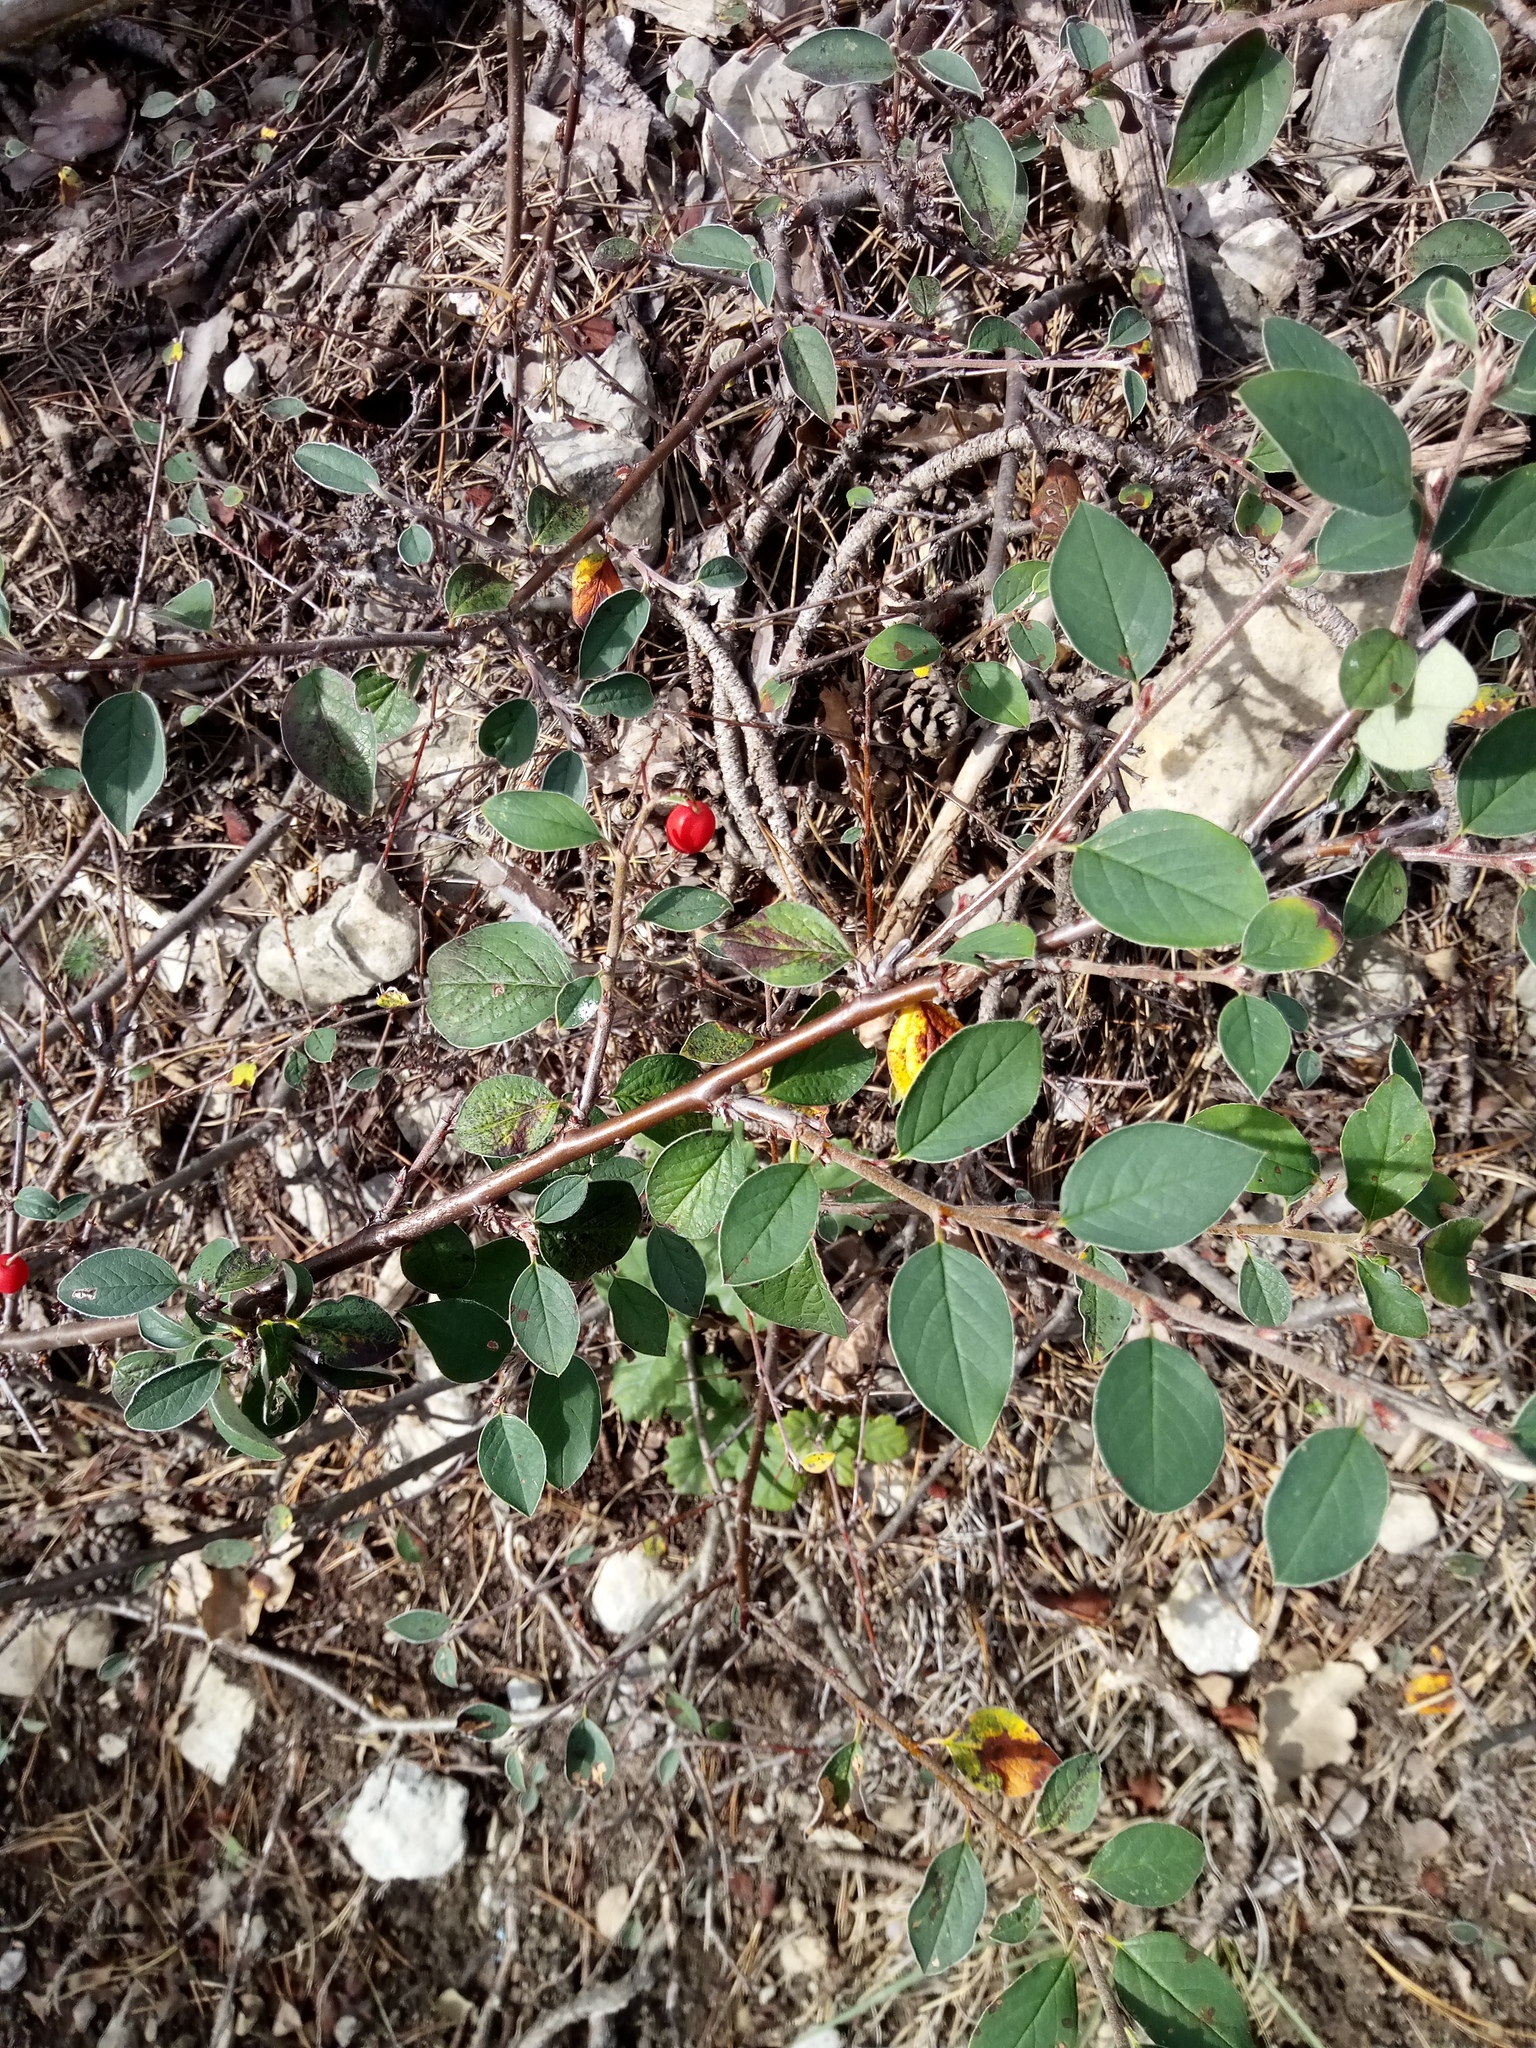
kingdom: Plantae
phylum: Tracheophyta
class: Magnoliopsida
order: Rosales
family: Rosaceae
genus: Cotoneaster
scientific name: Cotoneaster integerrimus
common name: Wild cotoneaster
